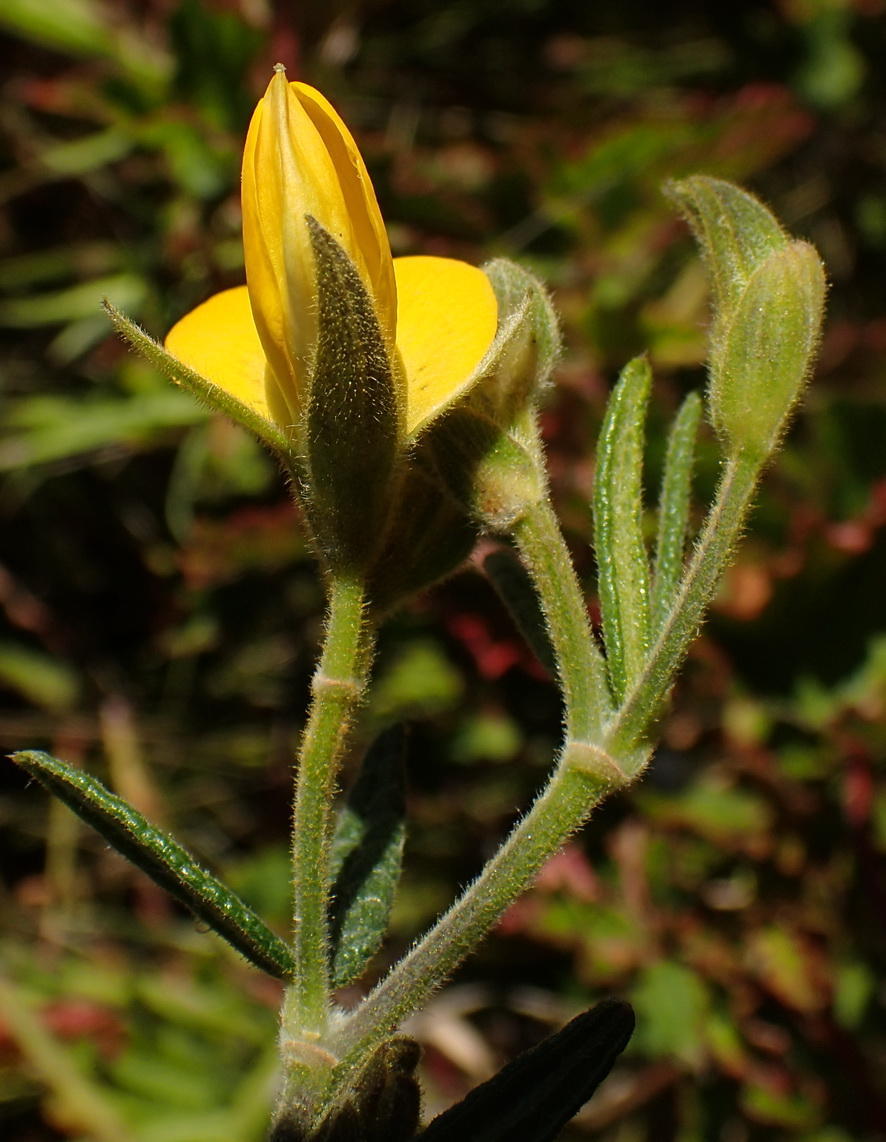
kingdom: Plantae
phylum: Tracheophyta
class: Magnoliopsida
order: Fabales
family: Fabaceae
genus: Rhynchosia
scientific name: Rhynchosia chrysoscias
